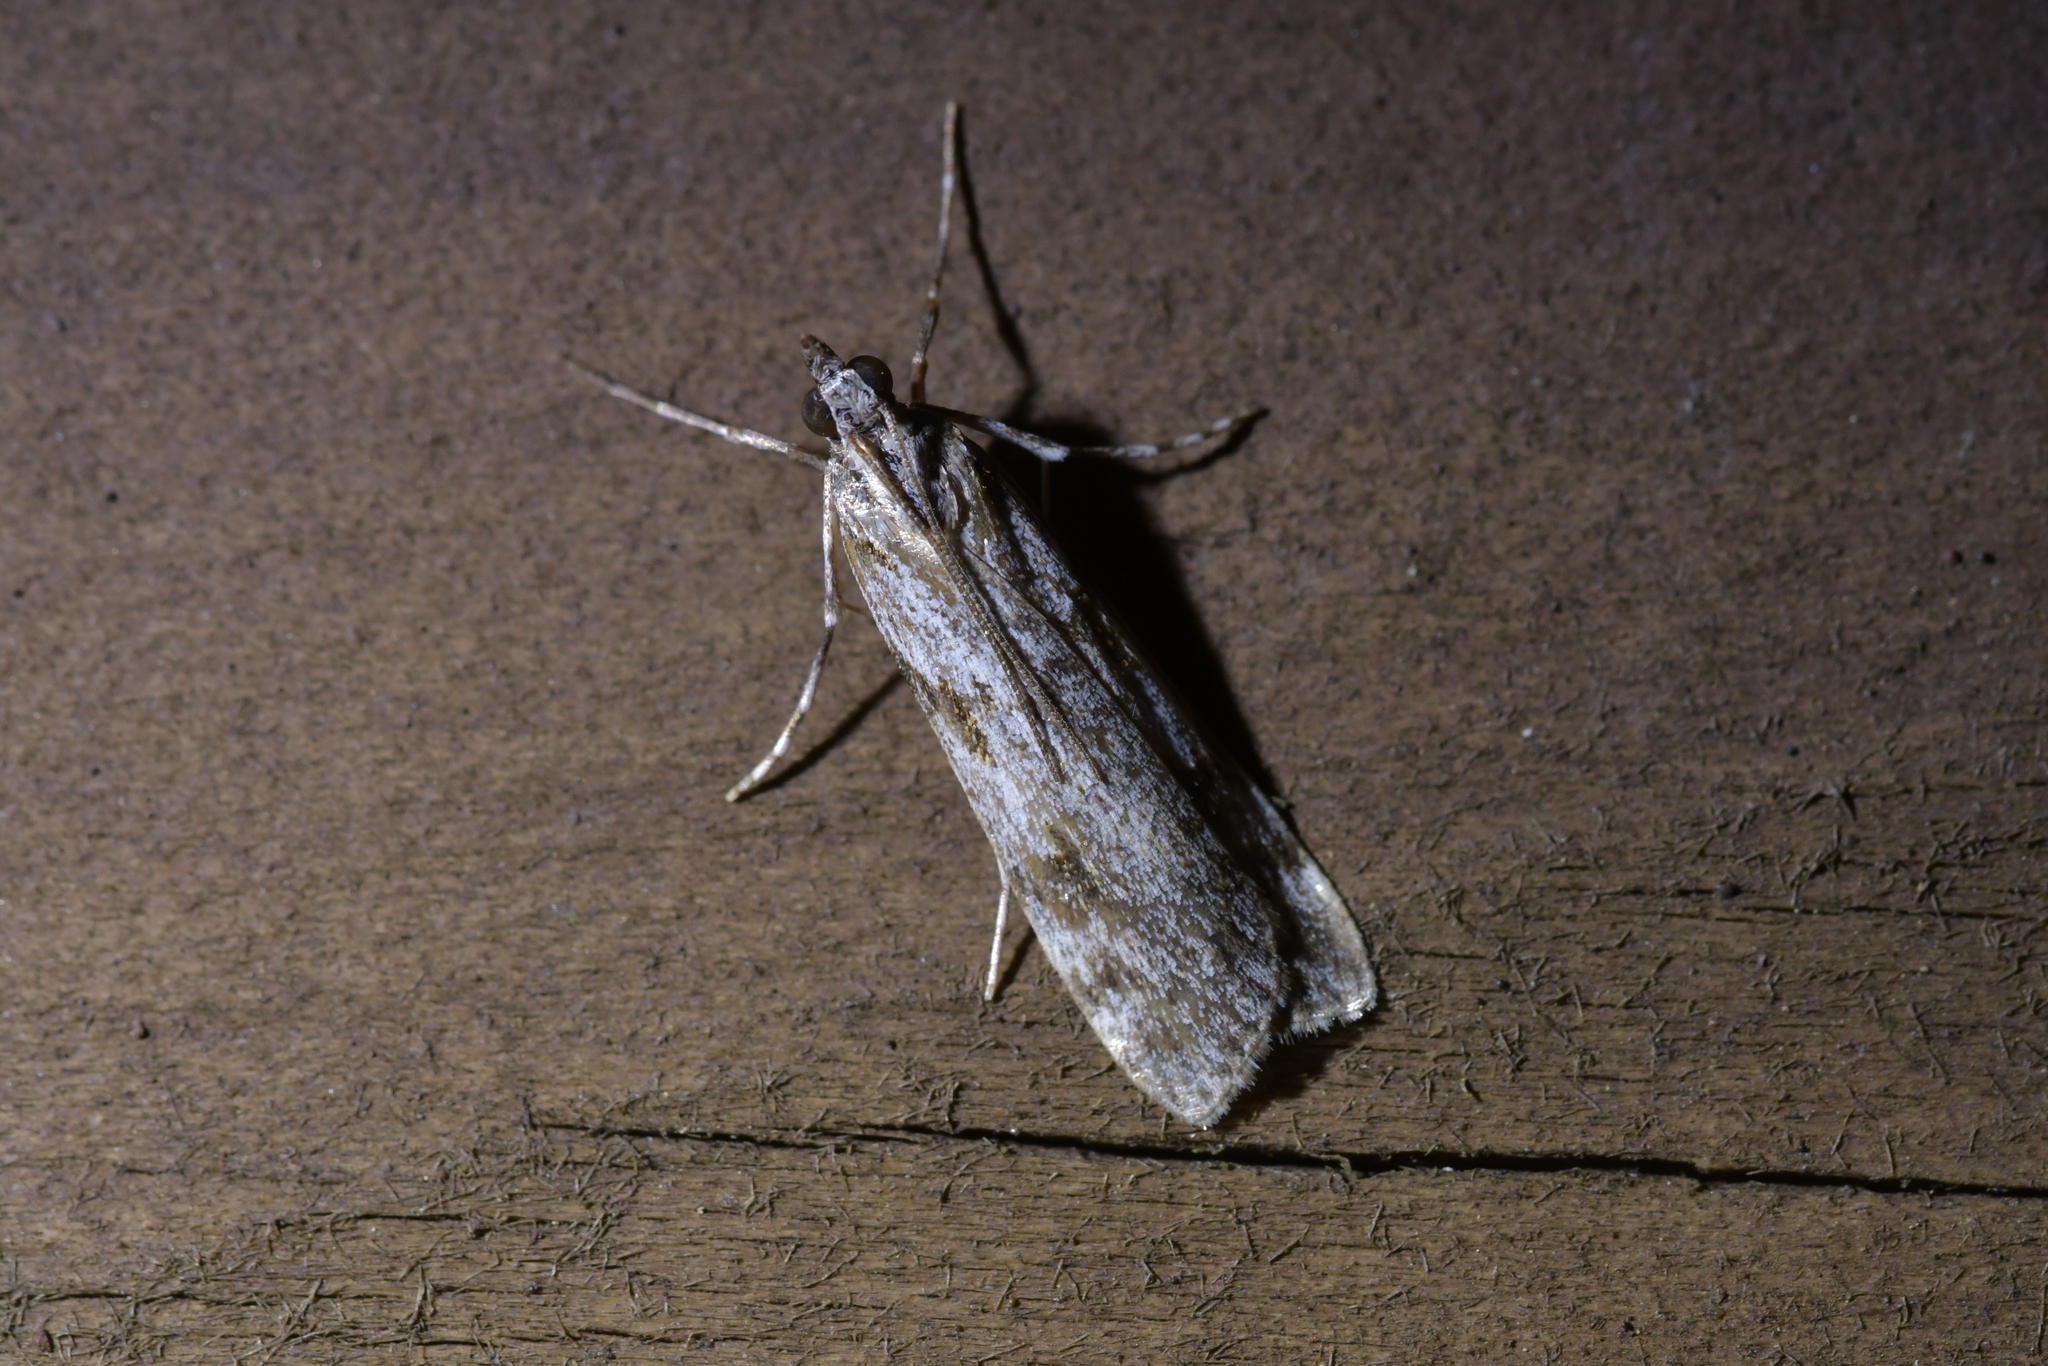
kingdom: Animalia
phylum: Arthropoda
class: Insecta
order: Lepidoptera
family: Crambidae
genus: Scoparia
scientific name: Scoparia halopis
